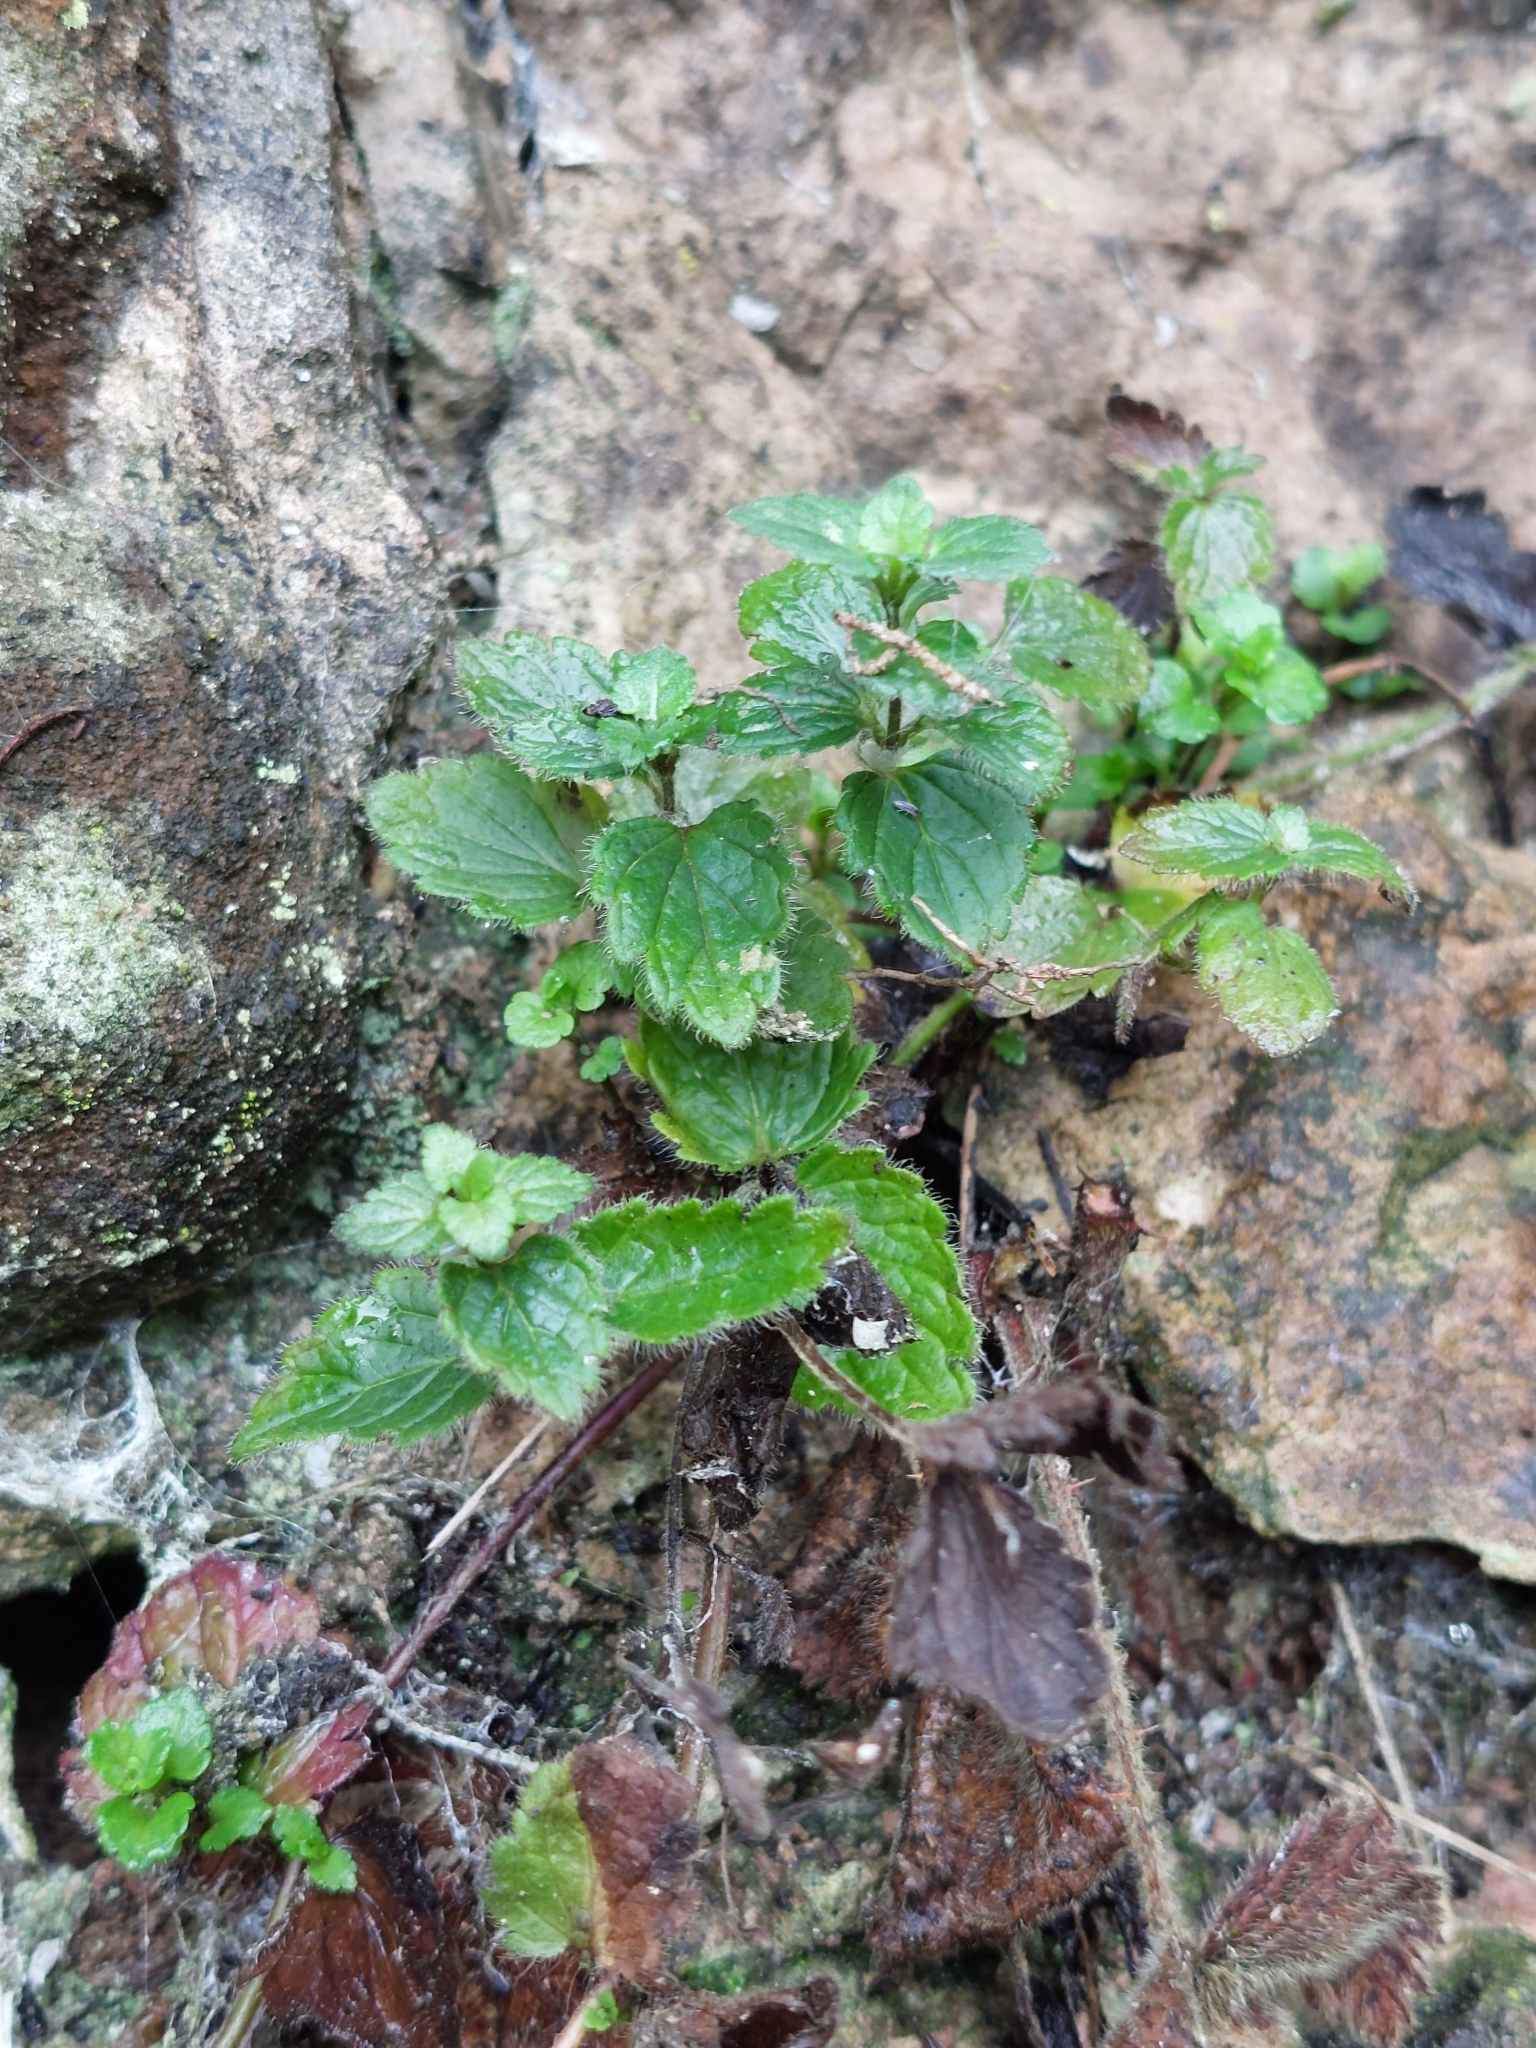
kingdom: Plantae
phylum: Tracheophyta
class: Magnoliopsida
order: Lamiales
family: Plantaginaceae
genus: Veronica
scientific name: Veronica chamaedrys
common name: Germander speedwell
